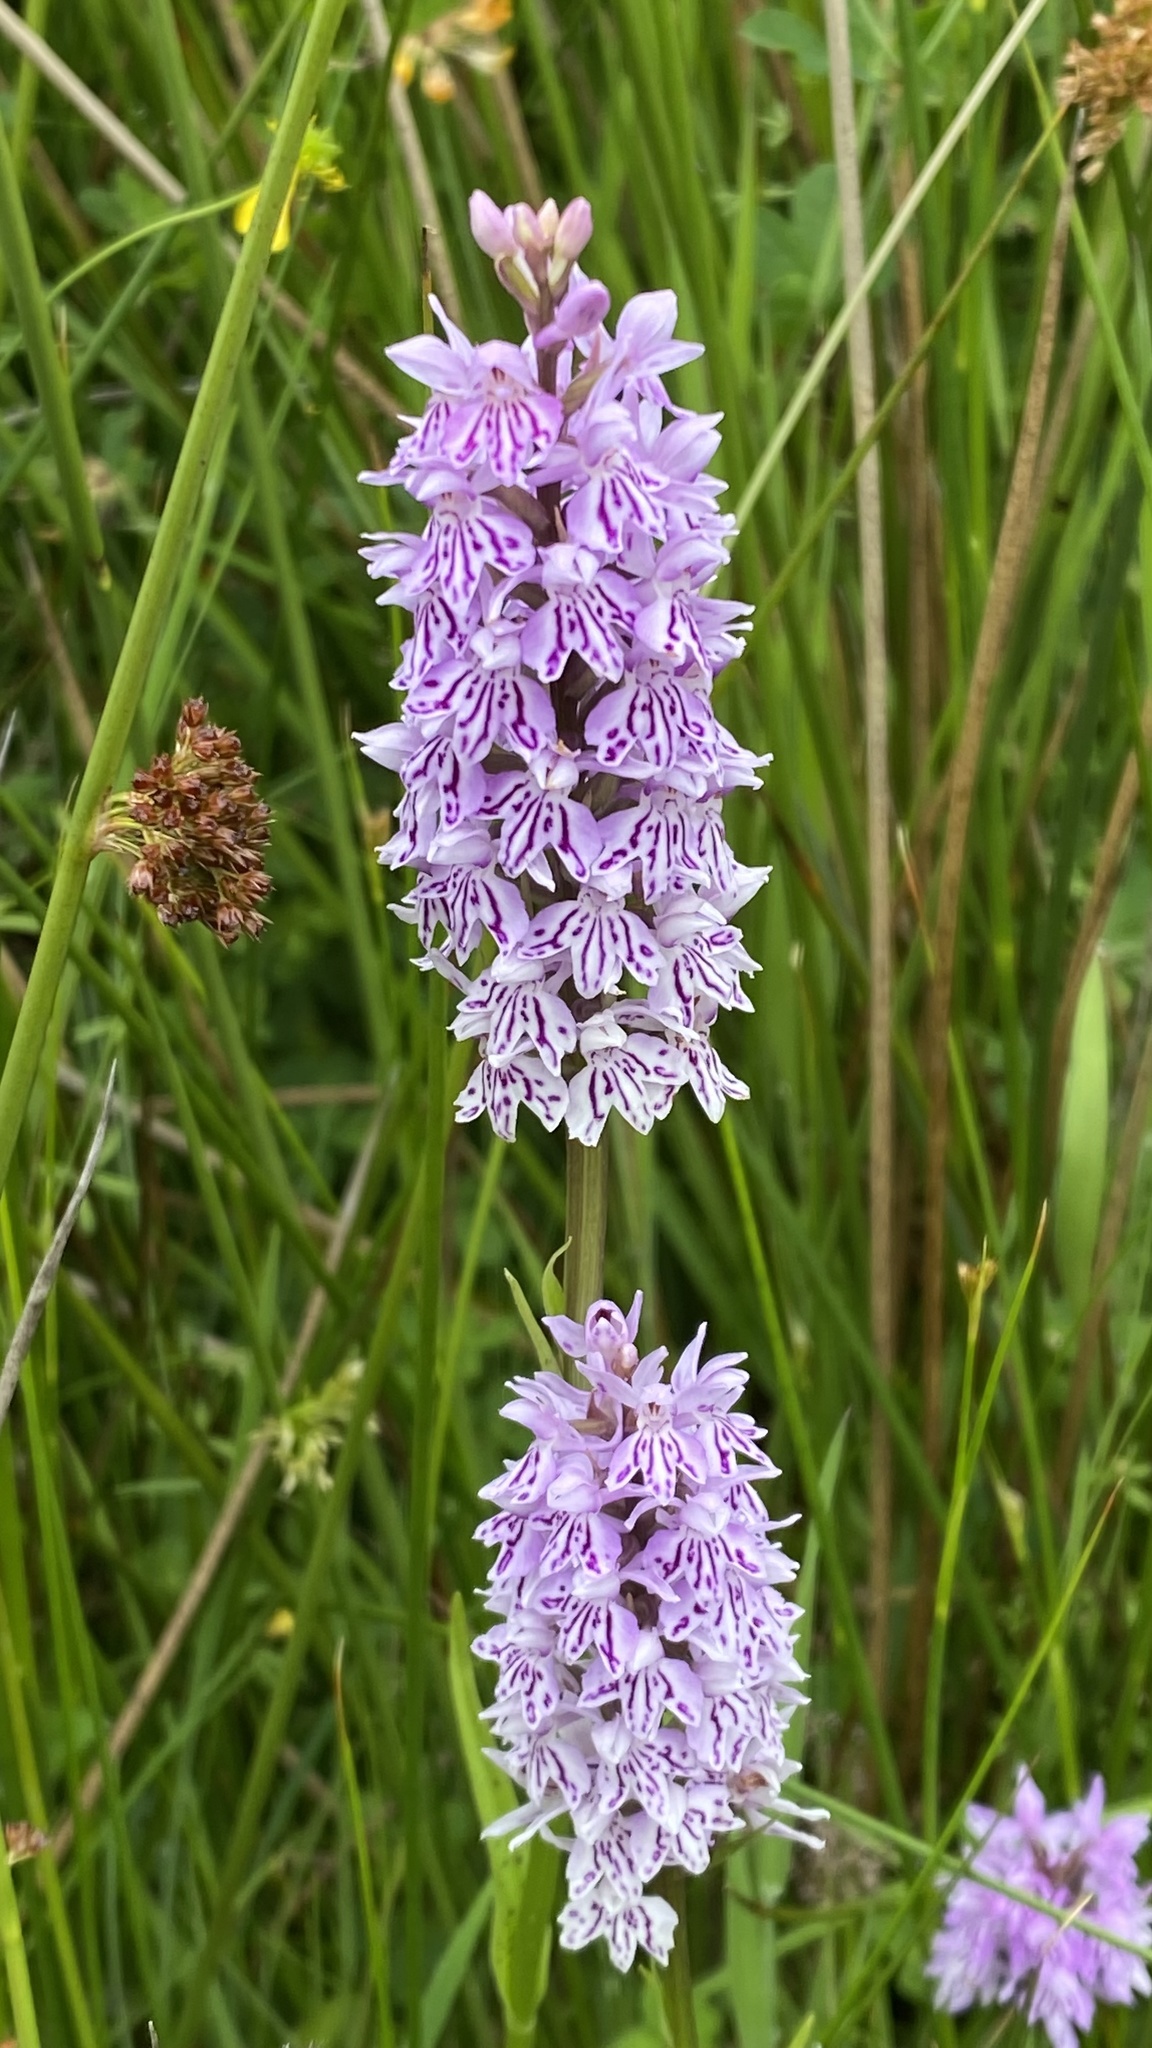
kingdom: Plantae
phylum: Tracheophyta
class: Liliopsida
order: Asparagales
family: Orchidaceae
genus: Dactylorhiza
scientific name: Dactylorhiza maculata
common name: Heath spotted-orchid
